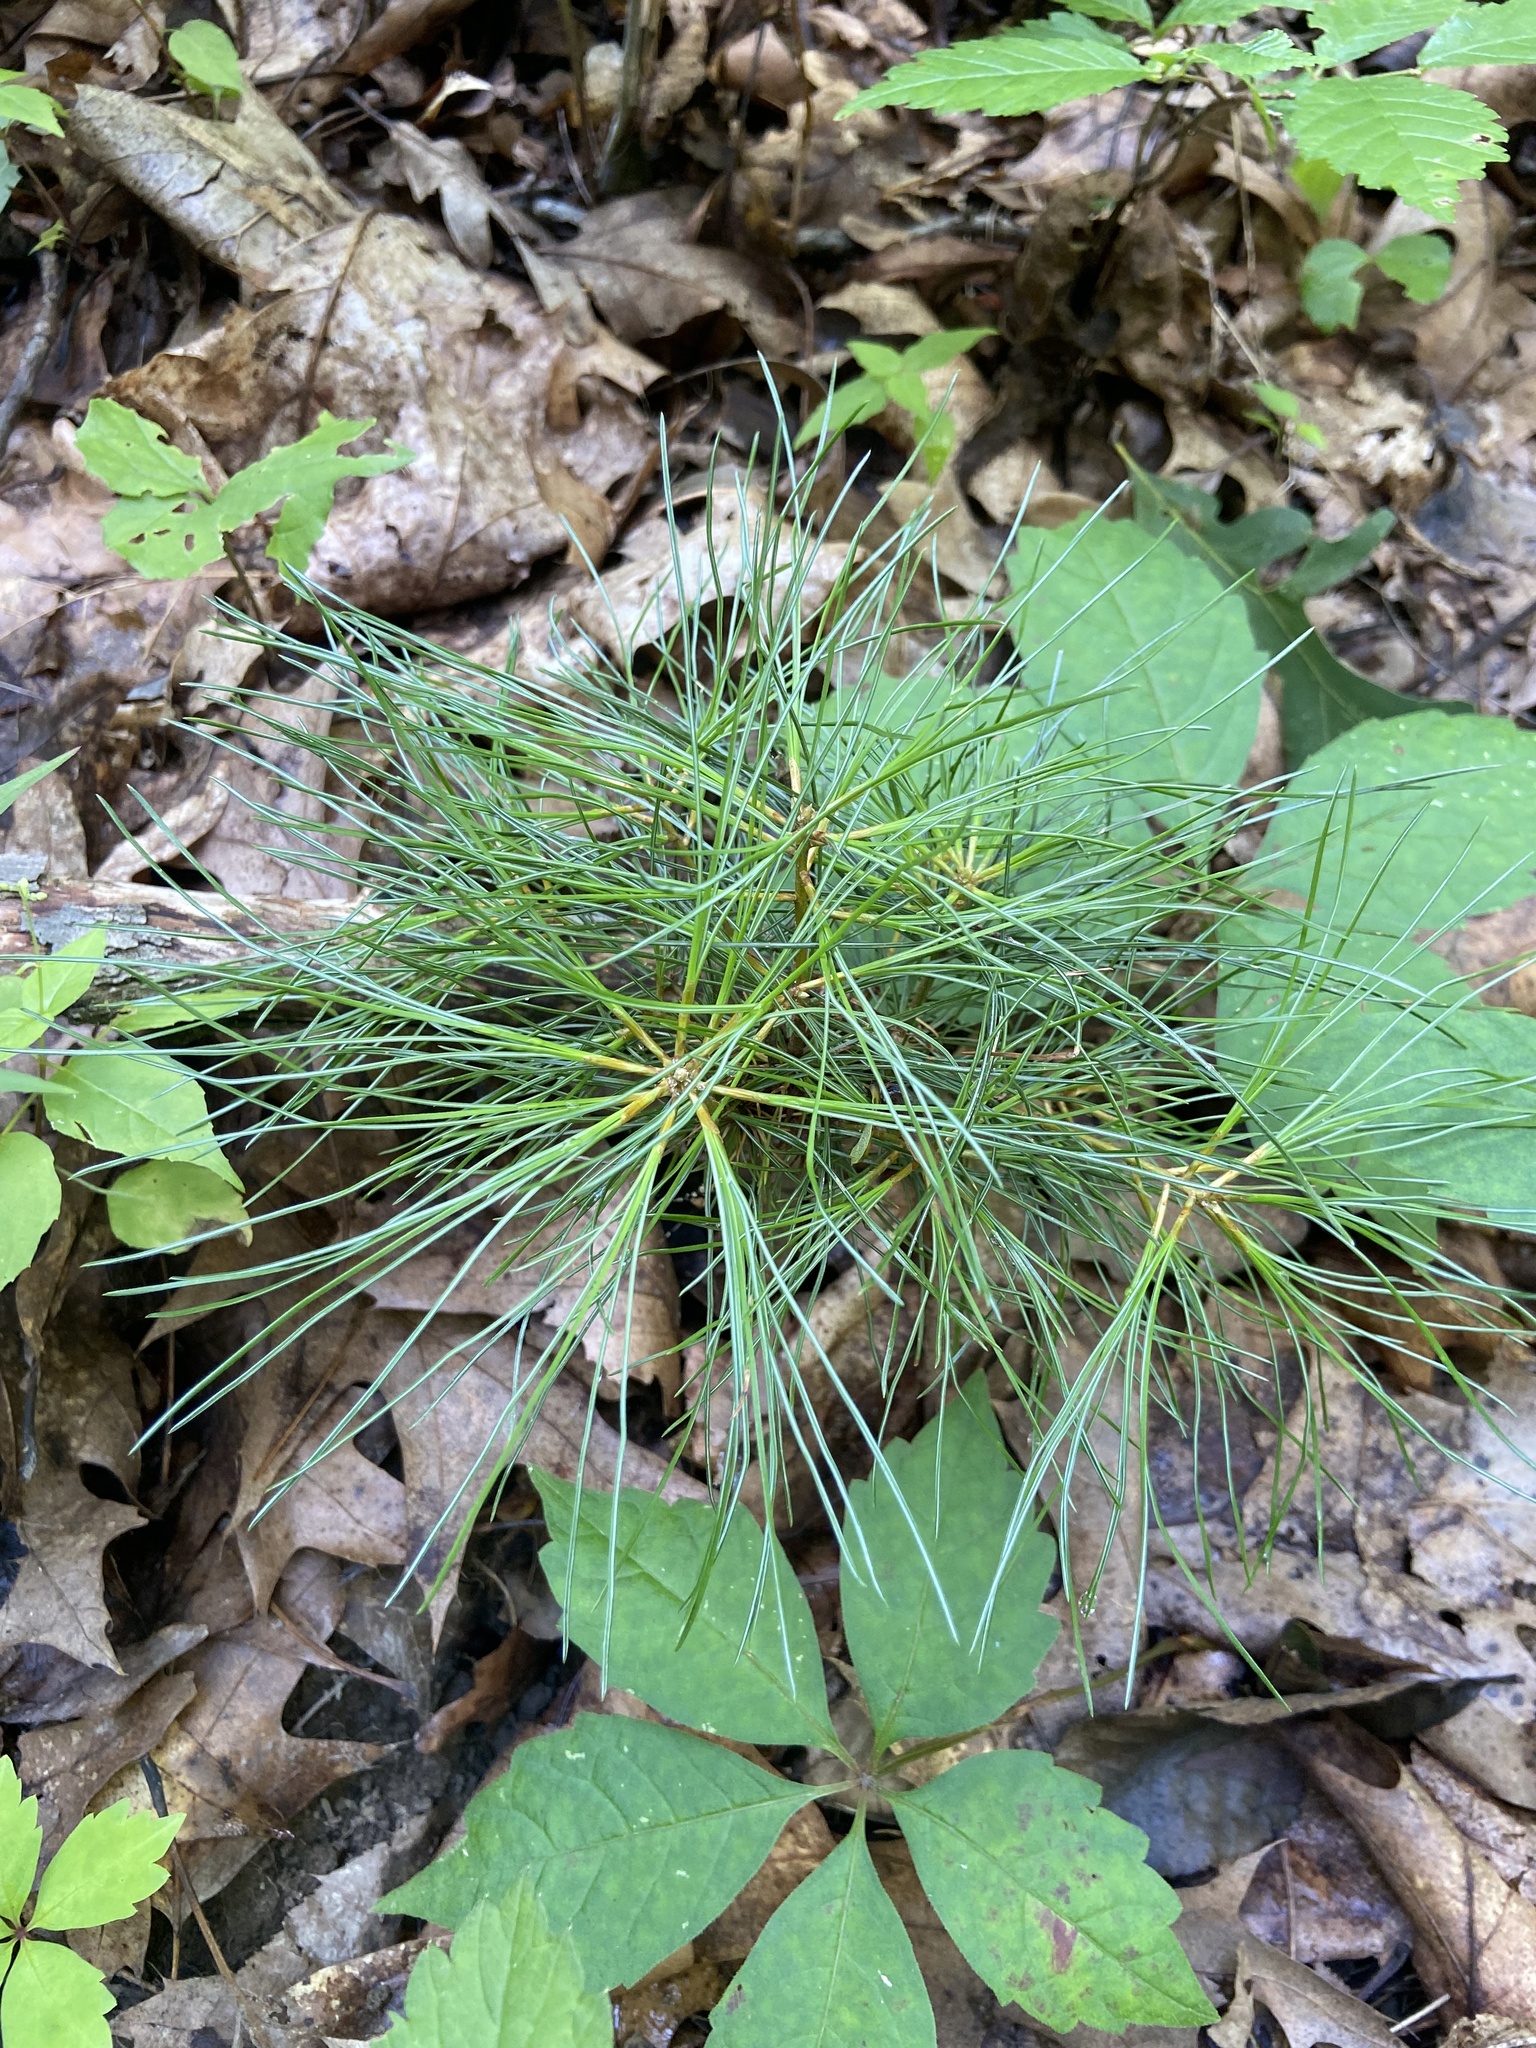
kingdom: Plantae
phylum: Tracheophyta
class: Pinopsida
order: Pinales
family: Pinaceae
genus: Pinus
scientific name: Pinus strobus
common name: Weymouth pine
